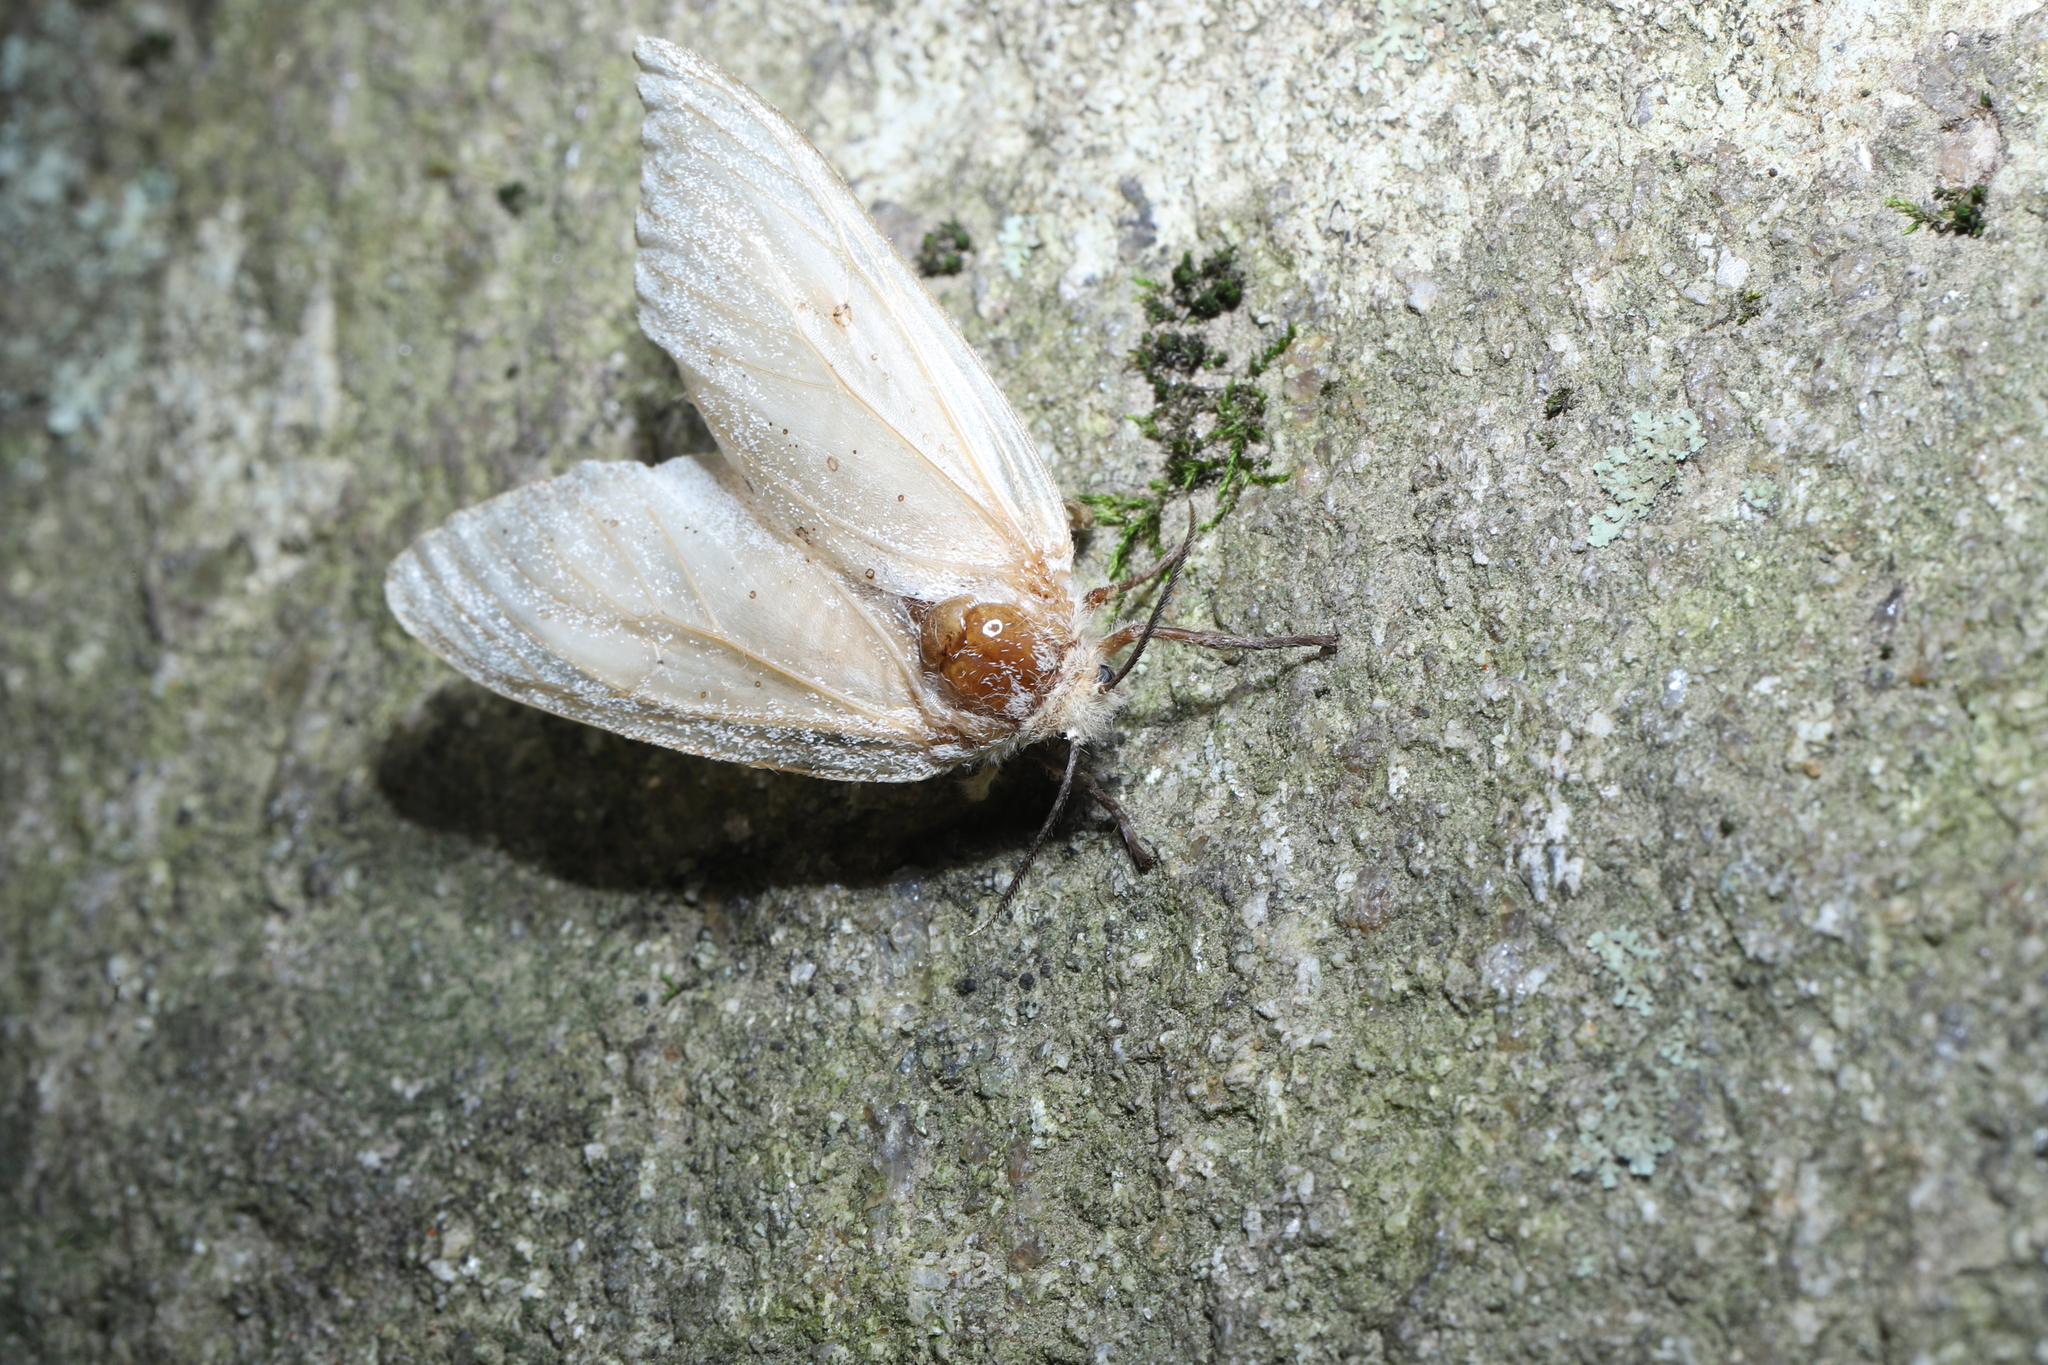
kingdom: Animalia
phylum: Arthropoda
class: Insecta
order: Lepidoptera
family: Erebidae
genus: Lymantria
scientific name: Lymantria dispar
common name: Gypsy moth
